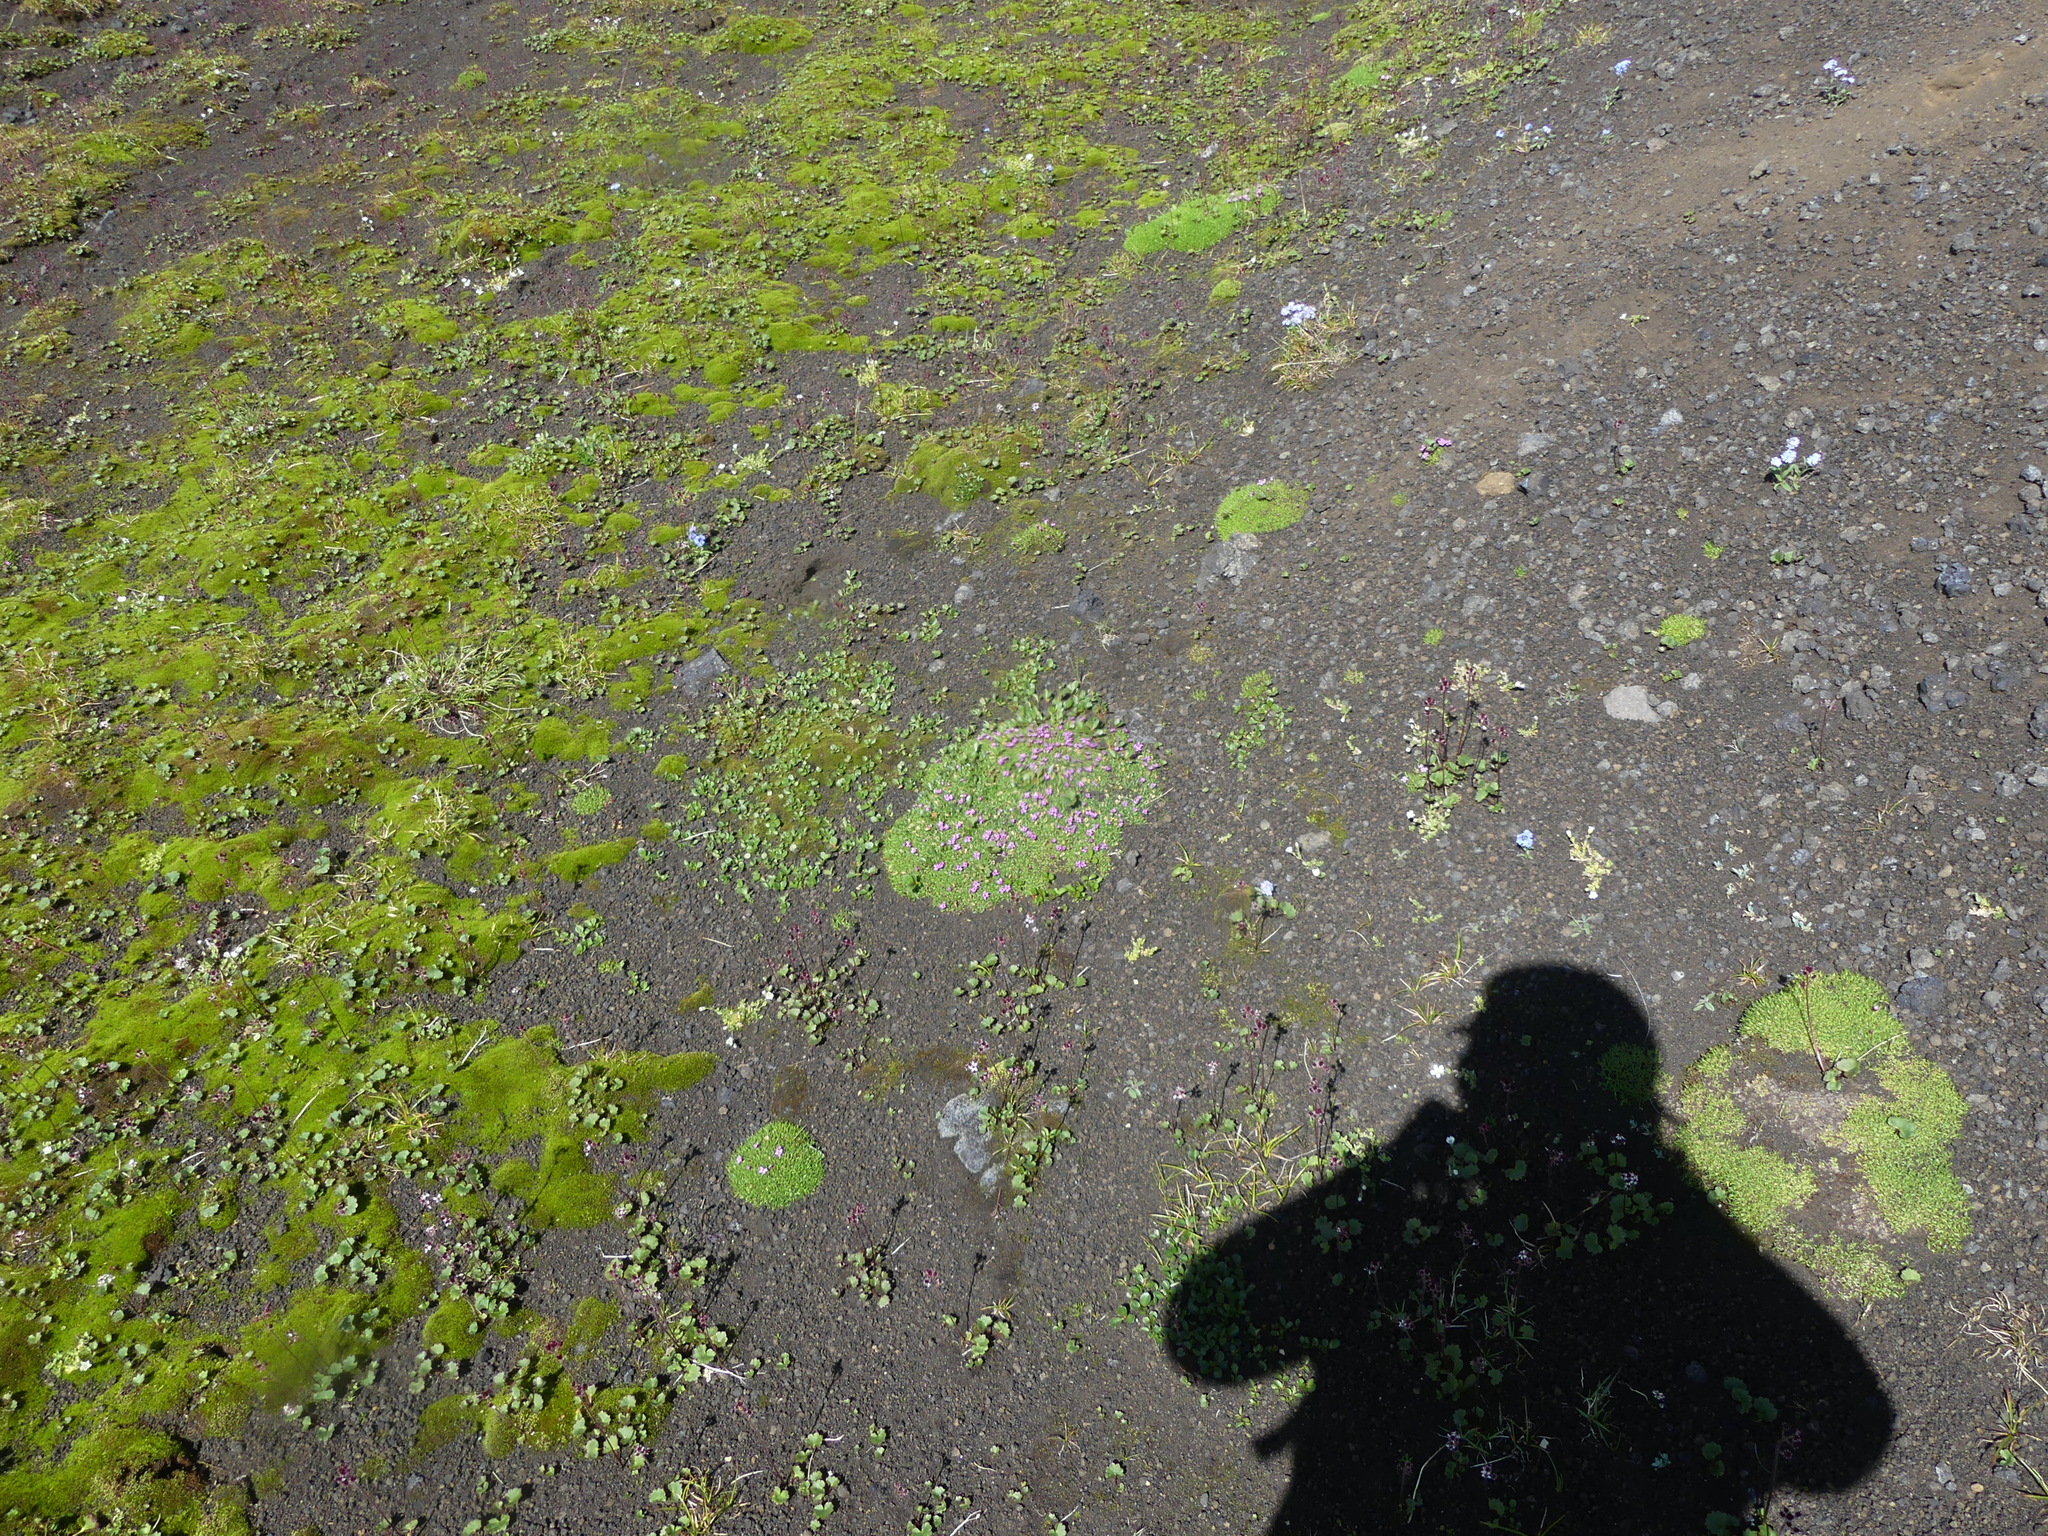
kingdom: Plantae
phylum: Tracheophyta
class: Magnoliopsida
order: Caryophyllales
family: Caryophyllaceae
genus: Silene
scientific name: Silene acaulis
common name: Moss campion
